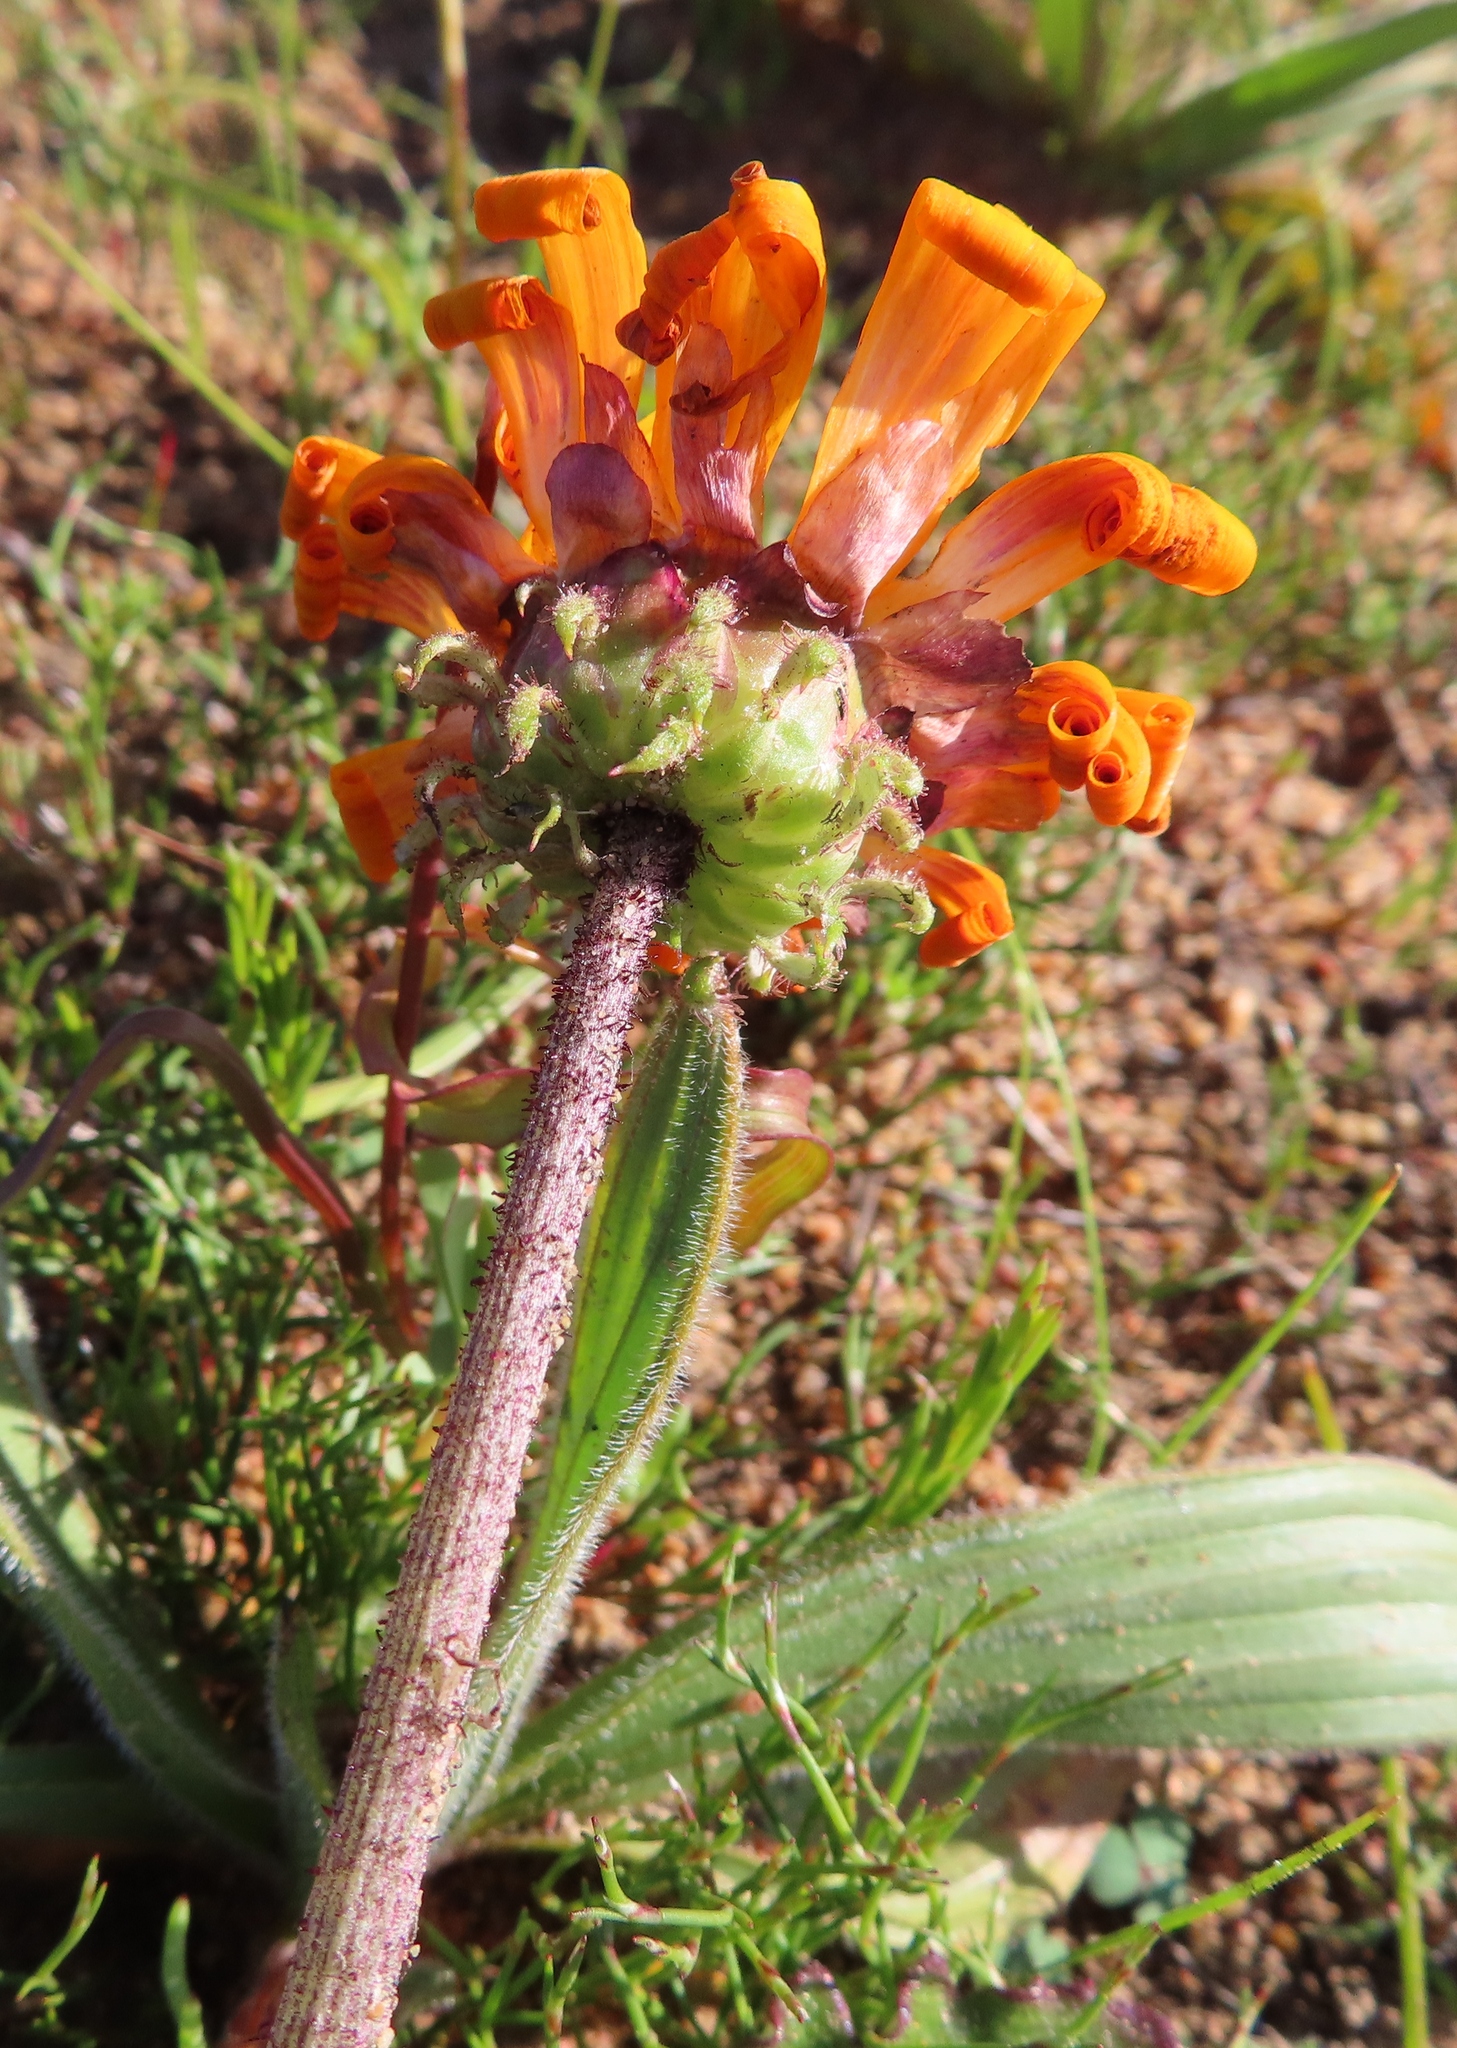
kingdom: Plantae
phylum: Tracheophyta
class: Magnoliopsida
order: Asterales
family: Asteraceae
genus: Arctotis
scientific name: Arctotis acaulis
